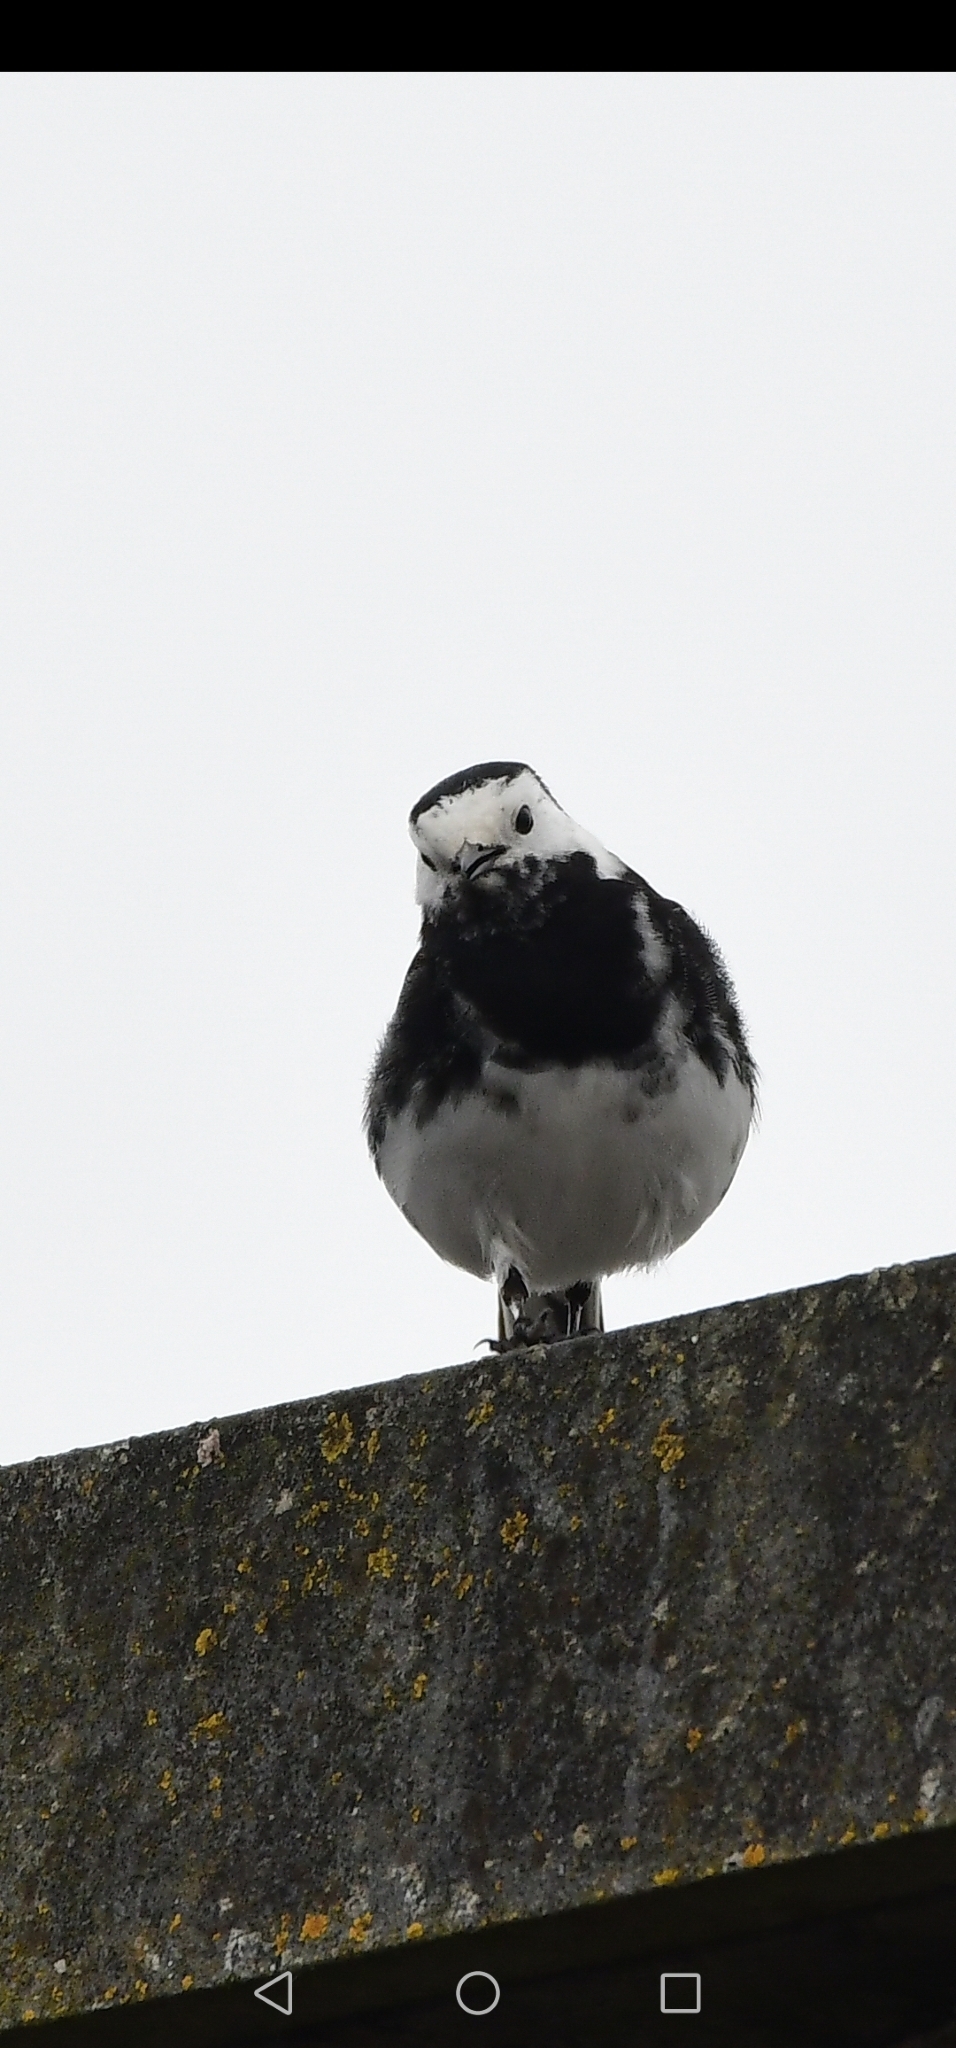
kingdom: Animalia
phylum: Chordata
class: Aves
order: Passeriformes
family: Motacillidae
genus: Motacilla
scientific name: Motacilla alba
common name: White wagtail
